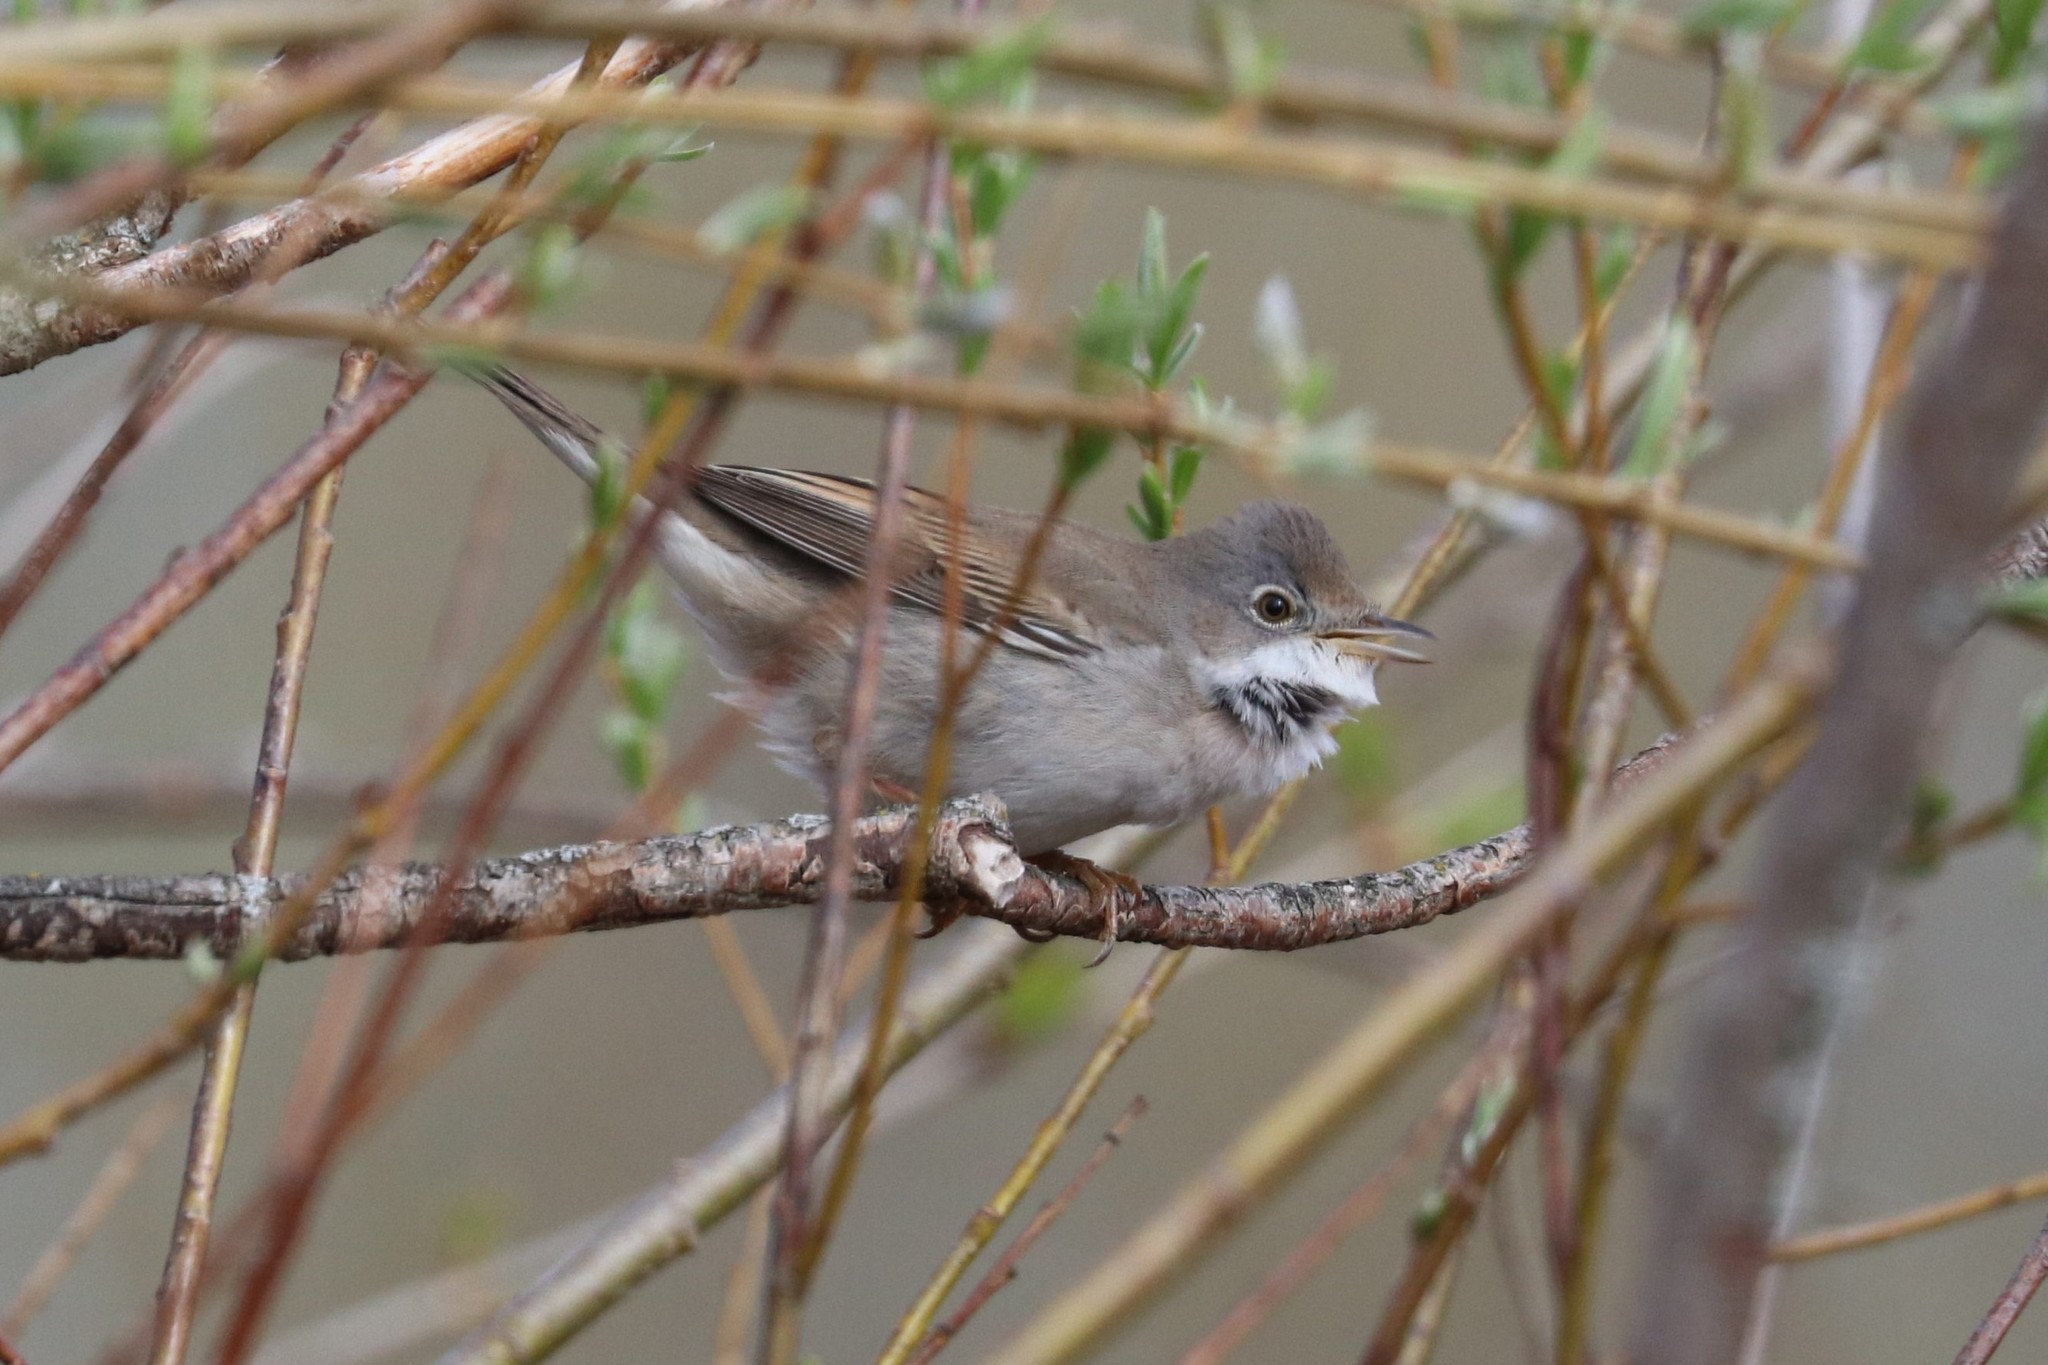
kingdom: Animalia
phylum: Chordata
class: Aves
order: Passeriformes
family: Sylviidae
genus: Sylvia
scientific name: Sylvia communis
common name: Common whitethroat
